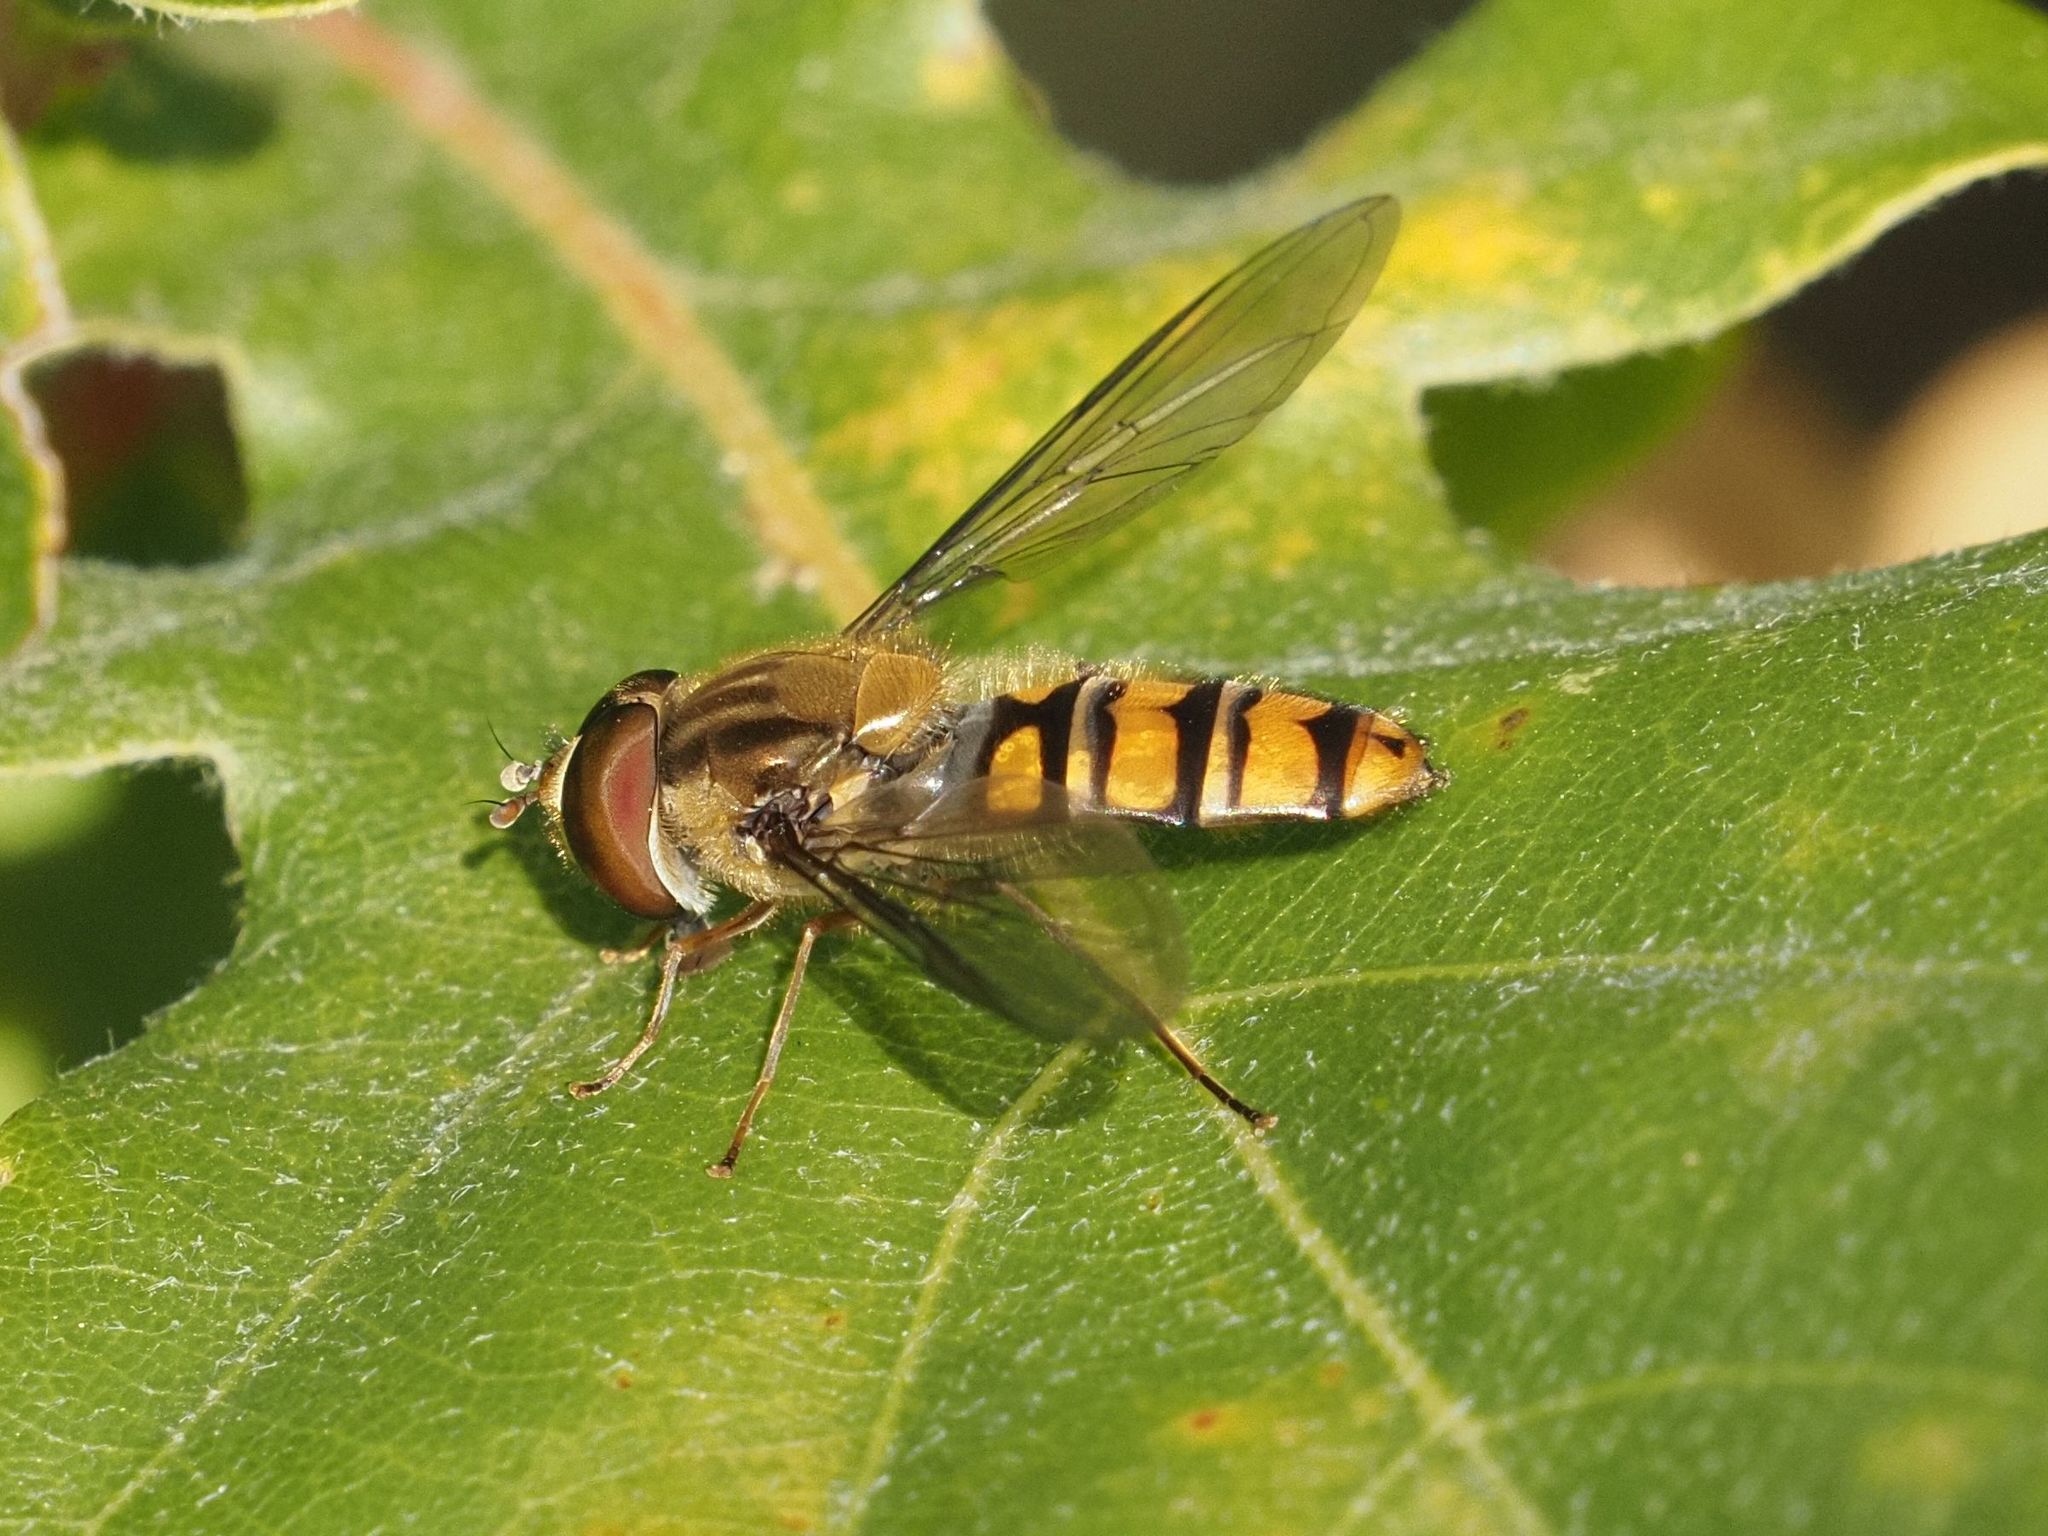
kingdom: Animalia
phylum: Arthropoda
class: Insecta
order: Diptera
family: Syrphidae
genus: Episyrphus
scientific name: Episyrphus balteatus
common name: Marmalade hoverfly
